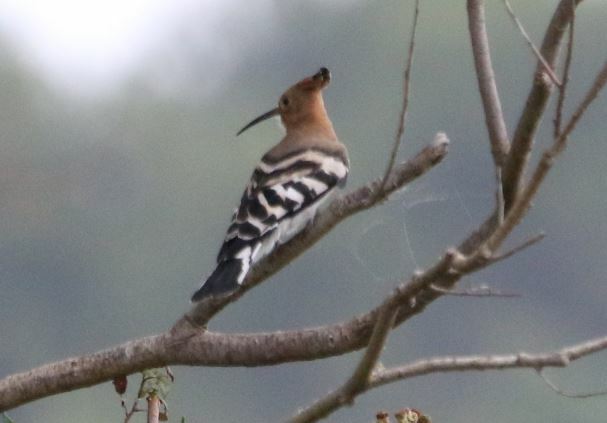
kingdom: Animalia
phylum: Chordata
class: Aves
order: Bucerotiformes
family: Upupidae
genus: Upupa
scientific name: Upupa epops
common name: Eurasian hoopoe
